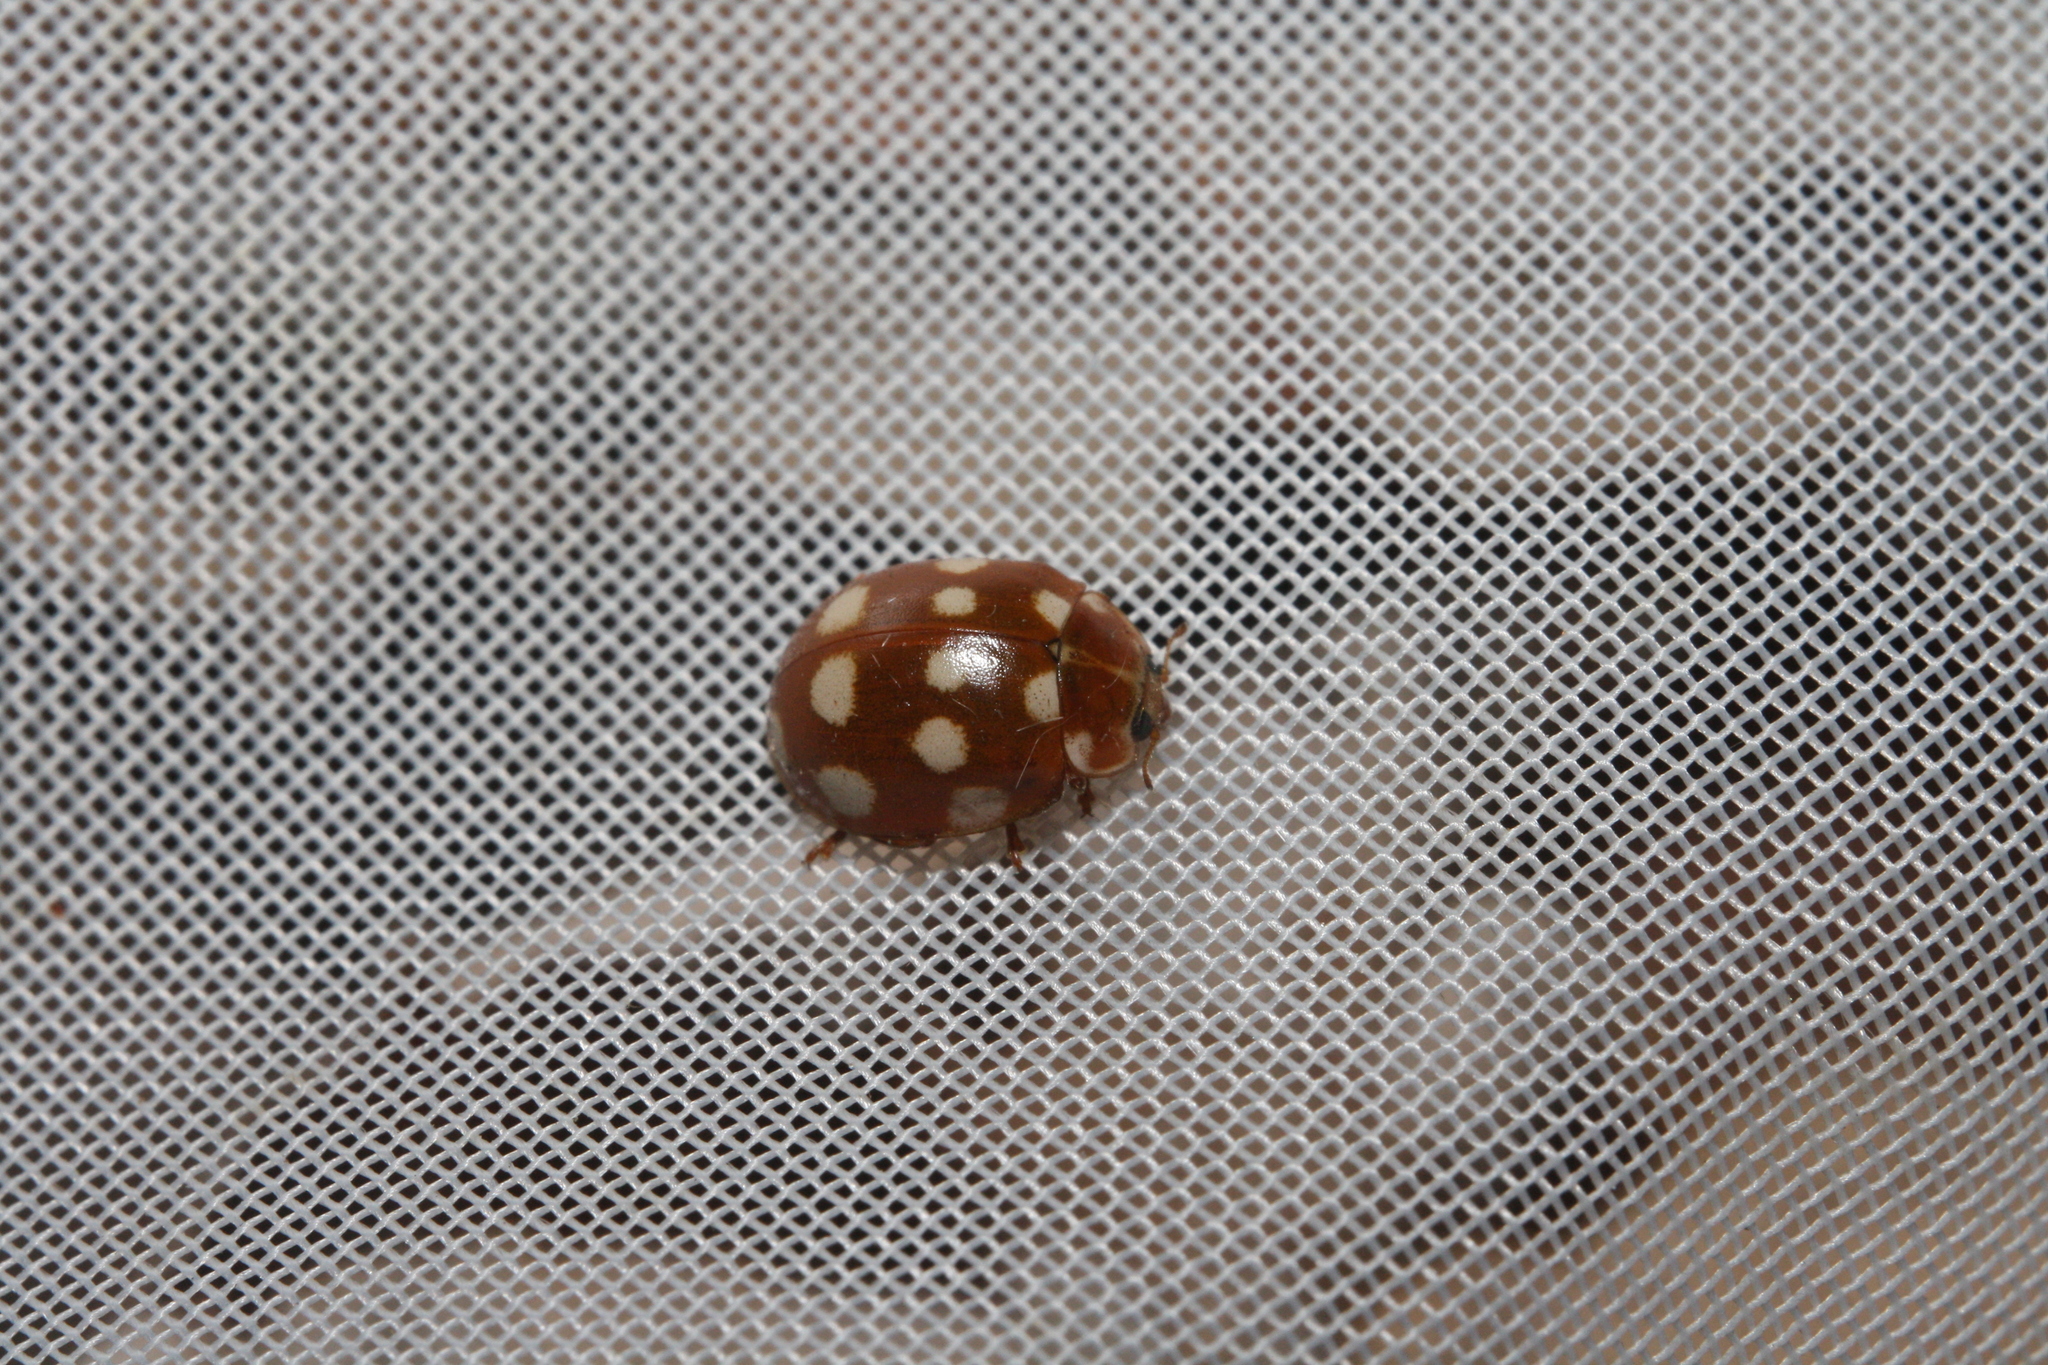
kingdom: Animalia
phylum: Arthropoda
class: Insecta
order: Coleoptera
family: Coccinellidae
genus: Calvia
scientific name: Calvia quatuordecimguttata
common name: Cream-spot ladybird
